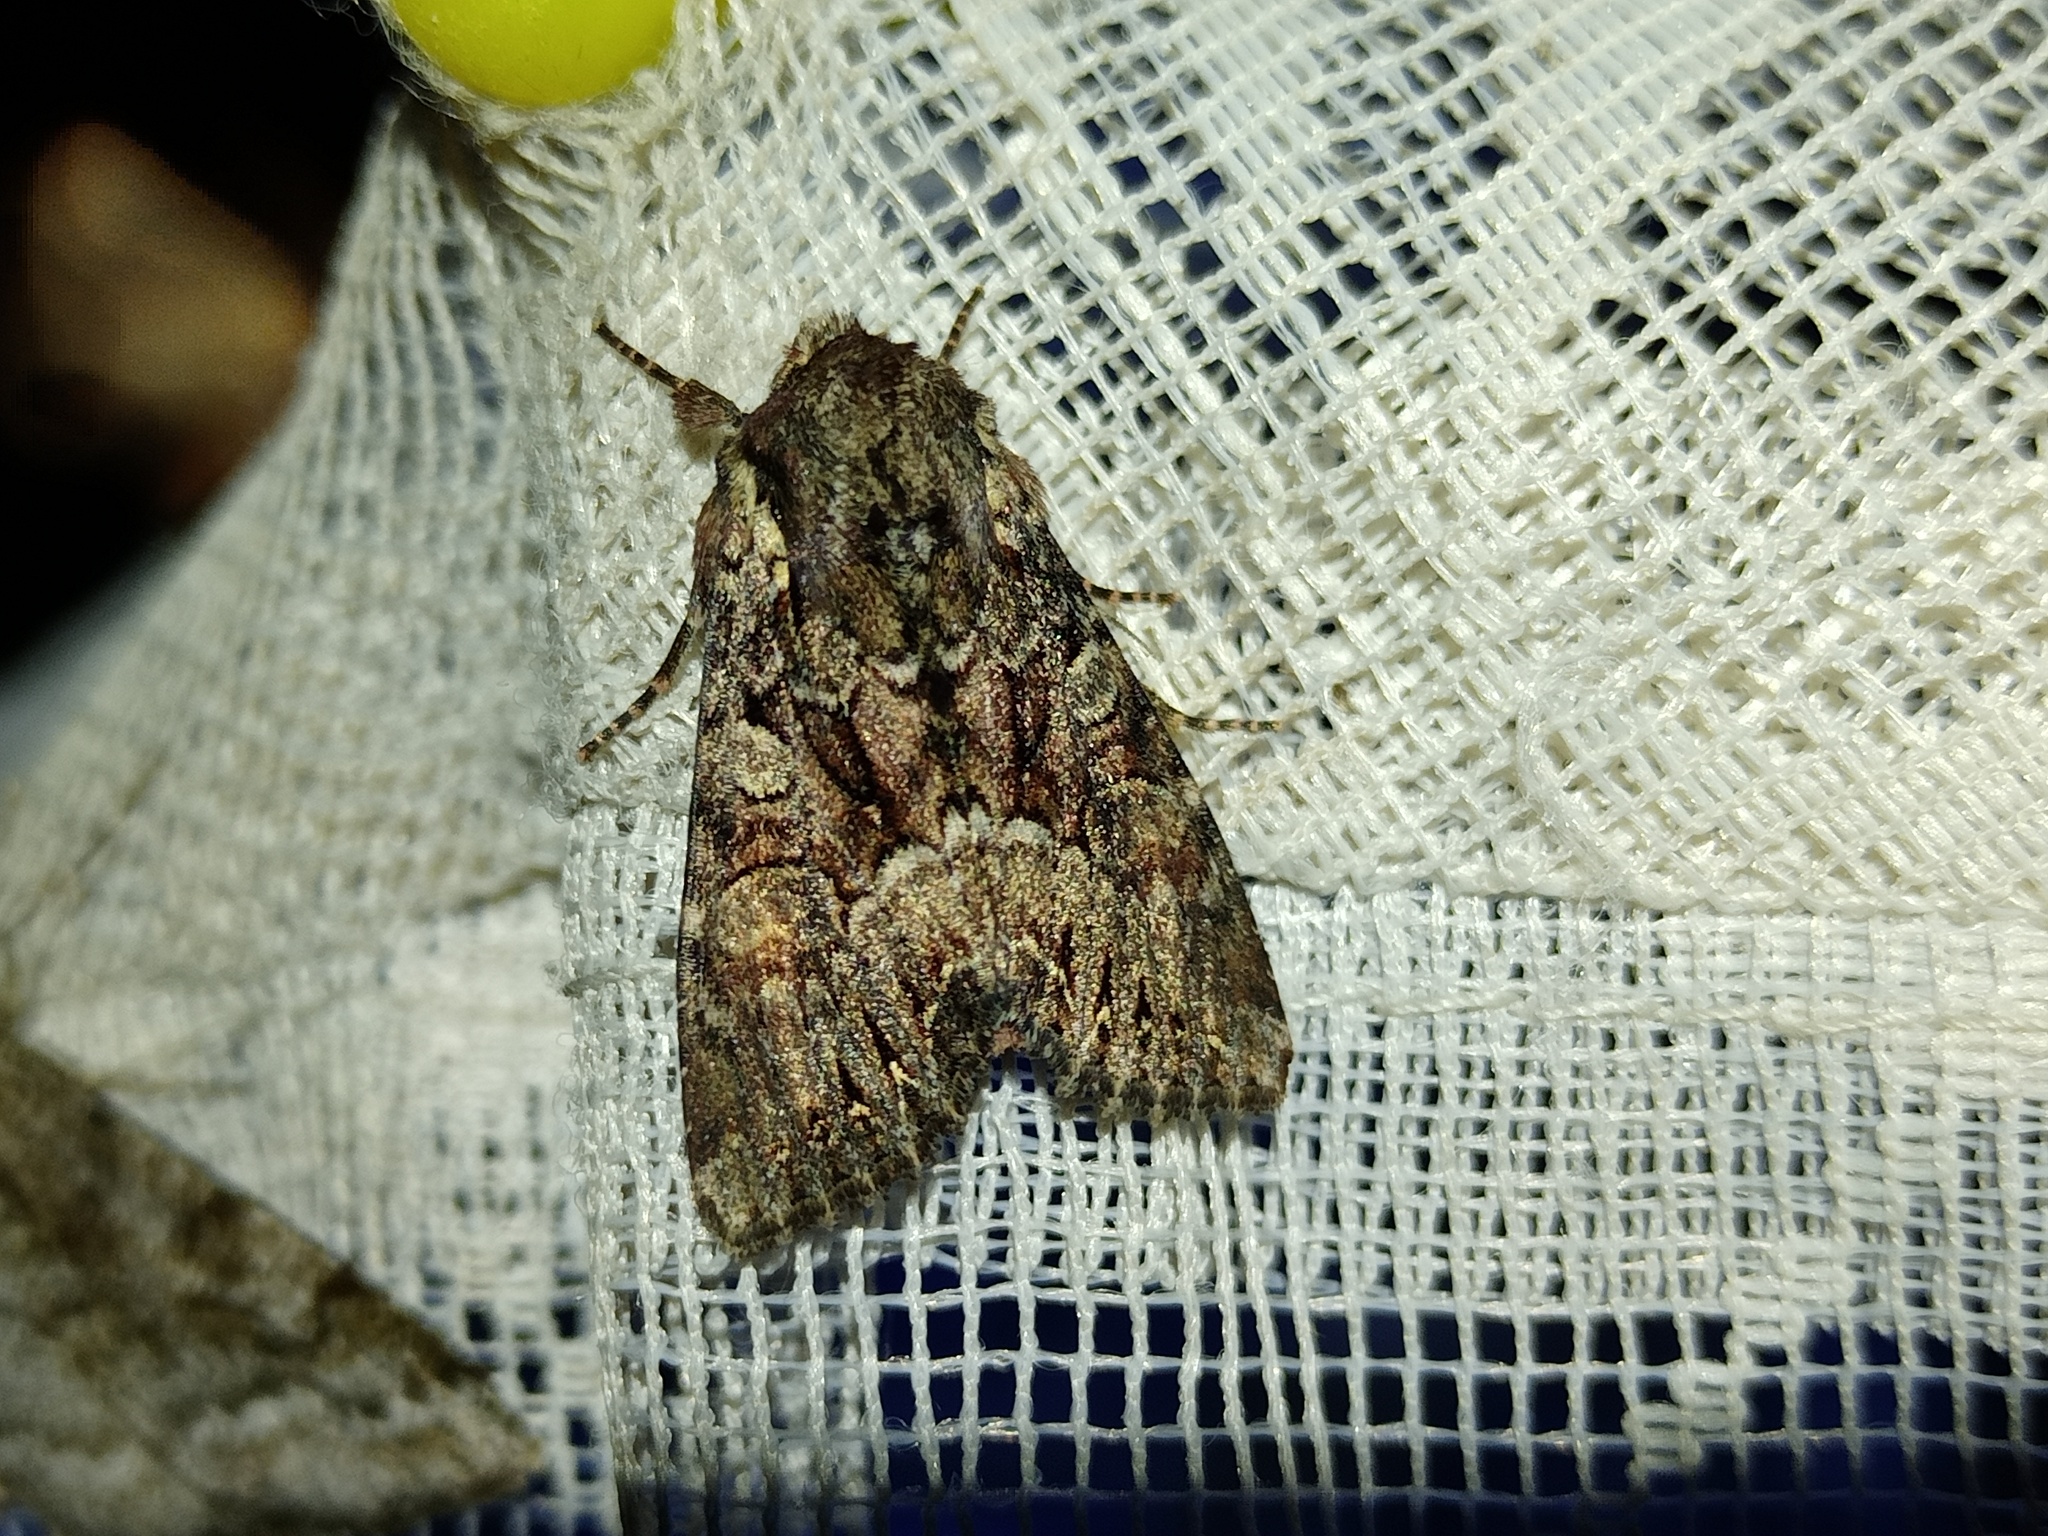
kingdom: Animalia
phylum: Arthropoda
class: Insecta
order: Lepidoptera
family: Noctuidae
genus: Lacanobia
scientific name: Lacanobia thalassina
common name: Pale-shouldered brocade
